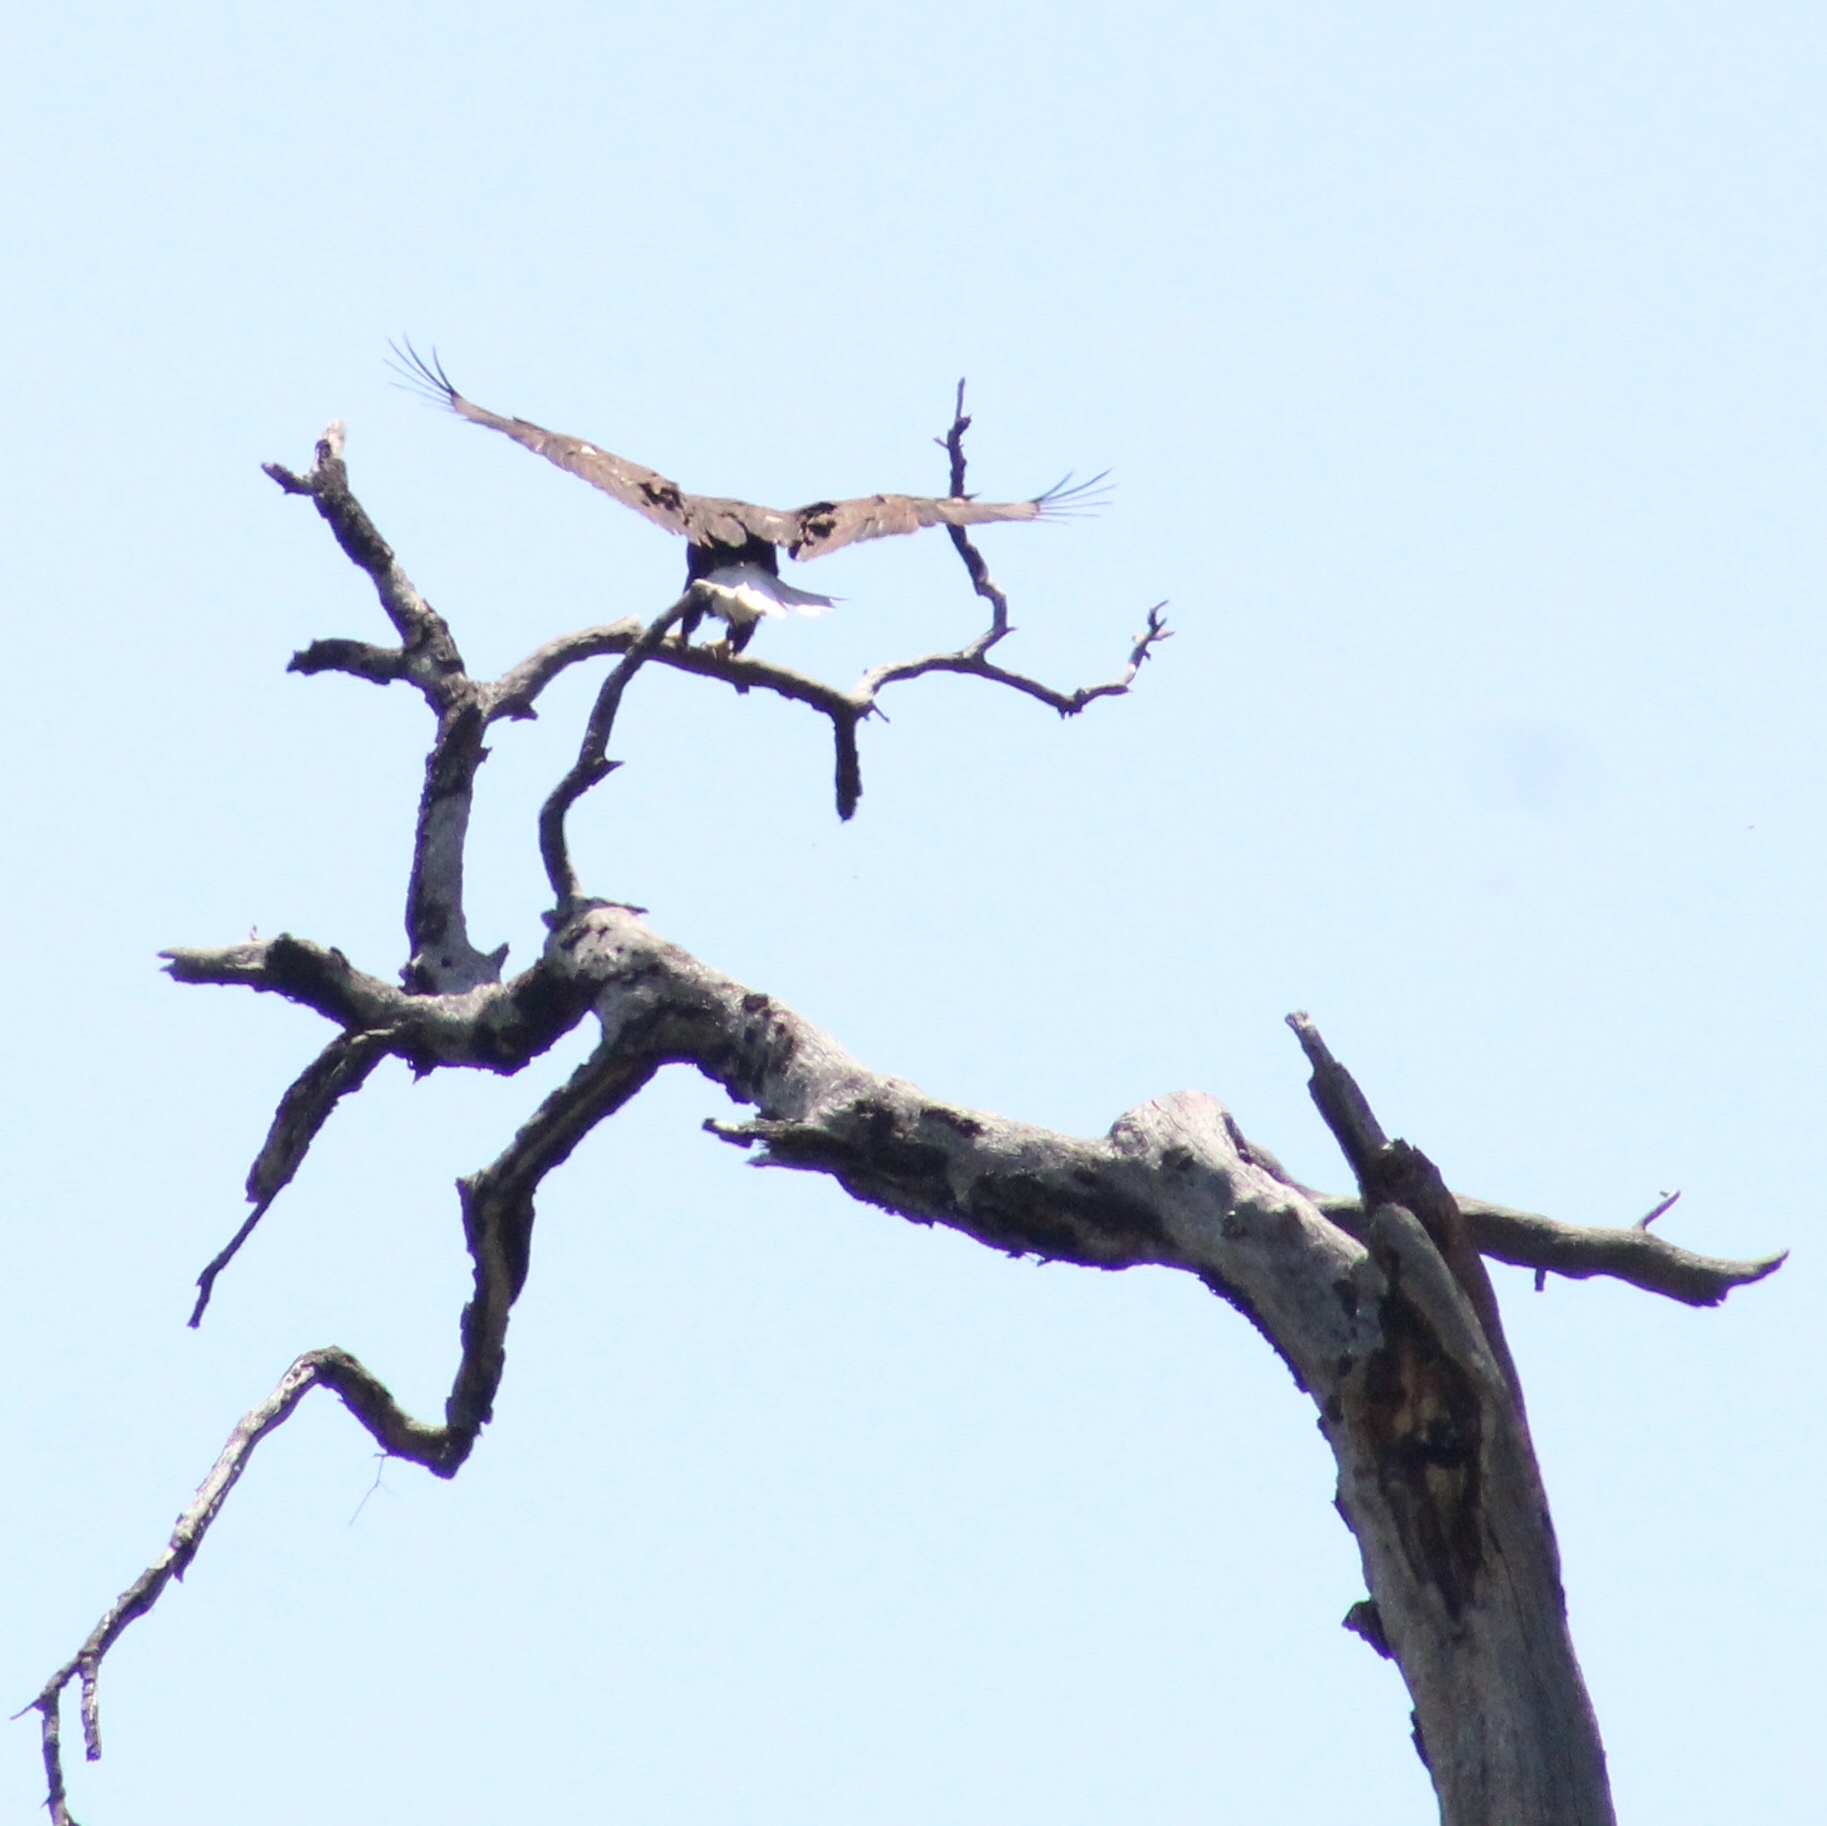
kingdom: Animalia
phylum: Chordata
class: Aves
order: Accipitriformes
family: Accipitridae
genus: Haliaeetus
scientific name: Haliaeetus leucocephalus
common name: Bald eagle
